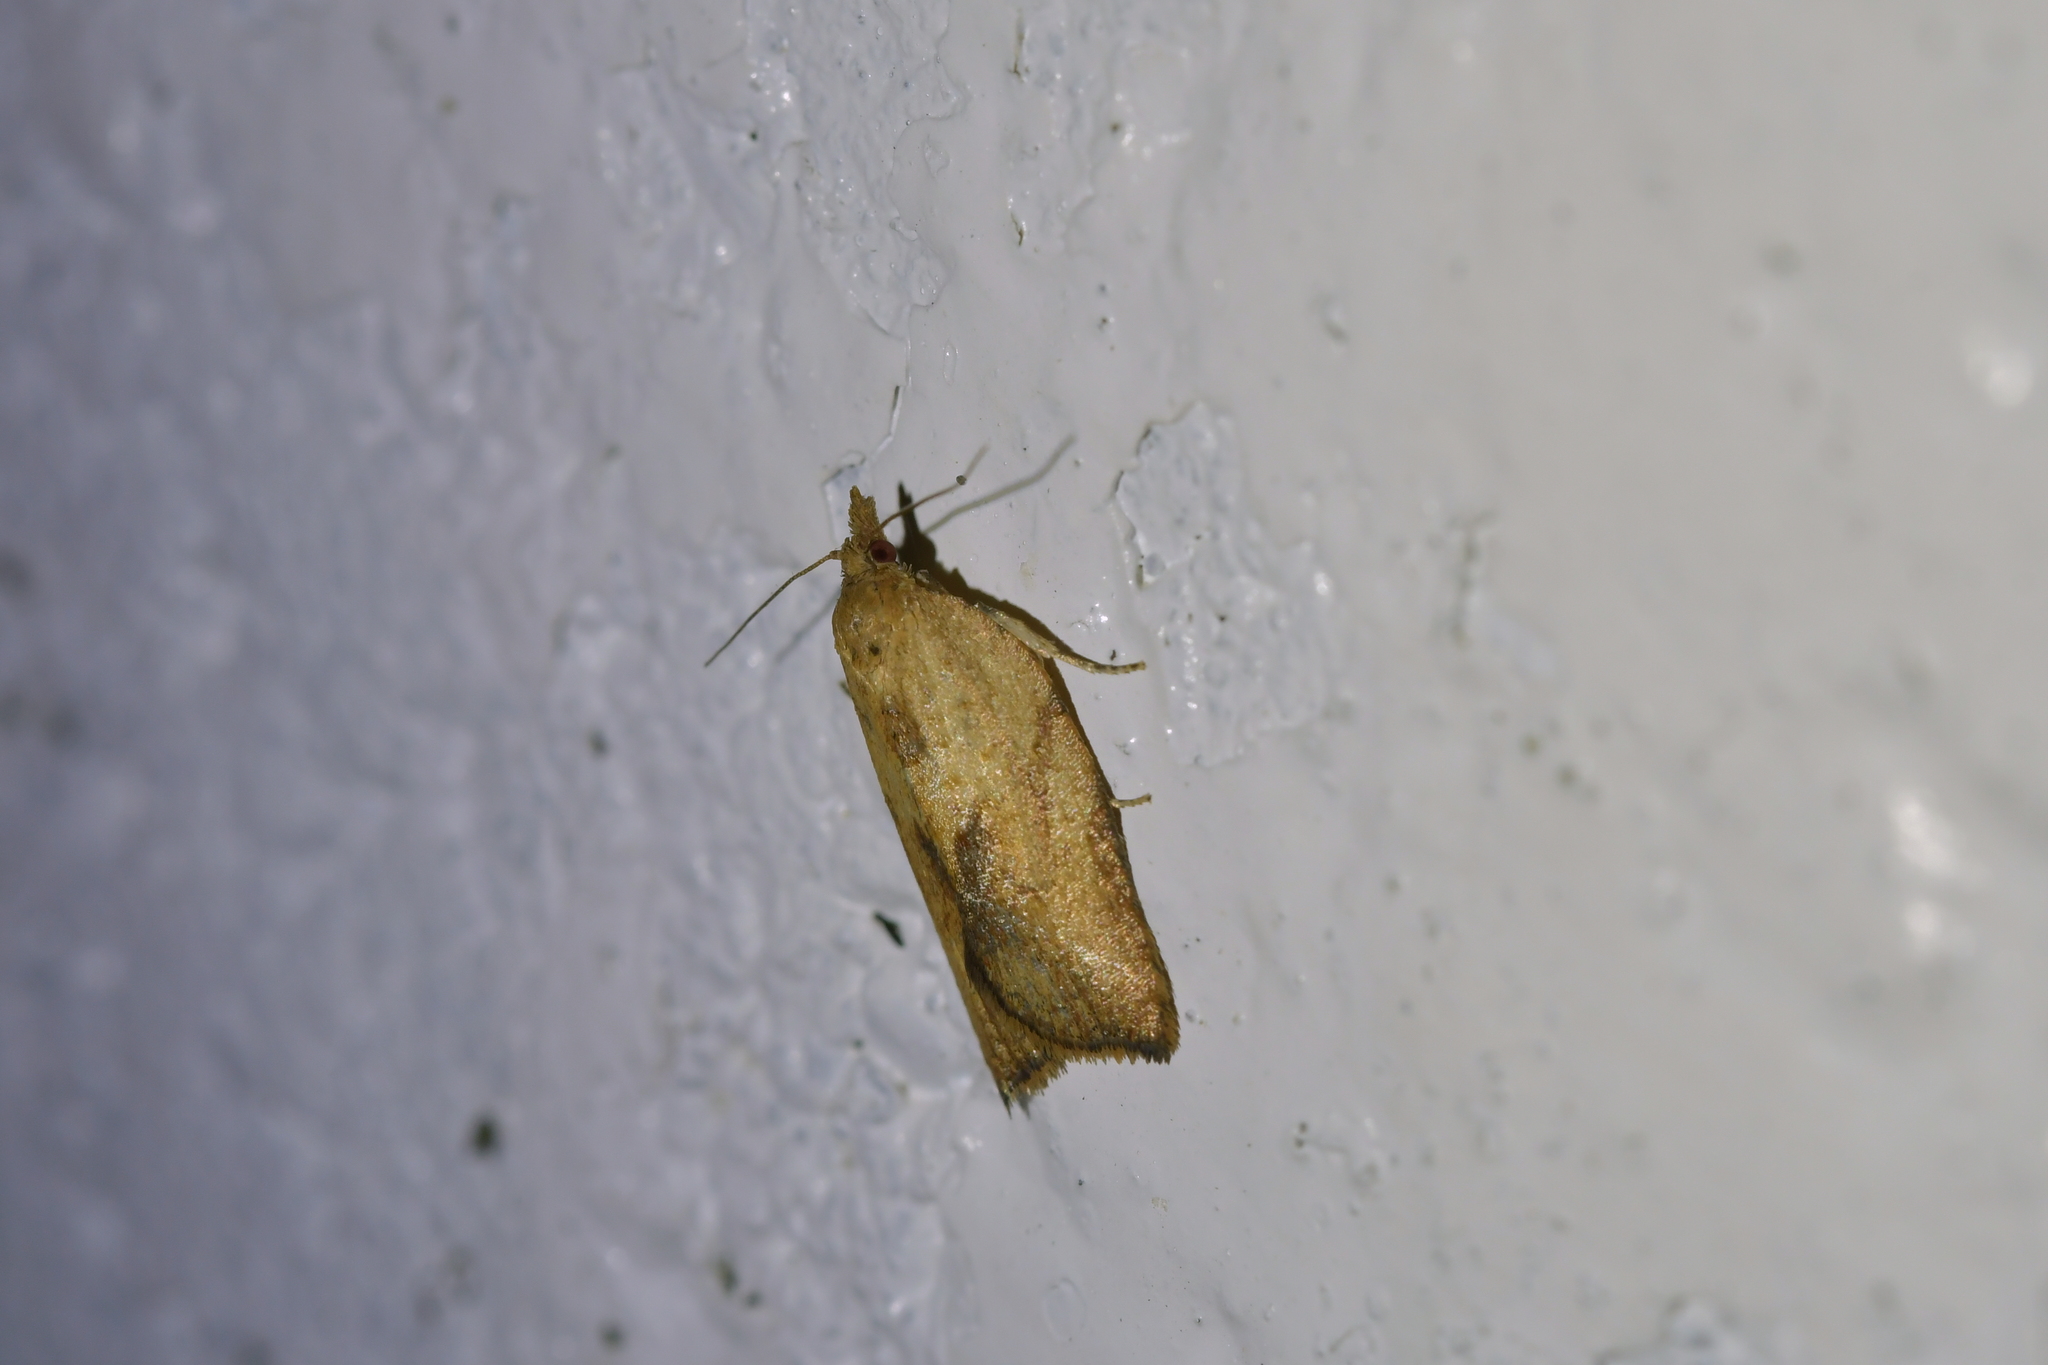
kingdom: Animalia
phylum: Arthropoda
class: Insecta
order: Lepidoptera
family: Tortricidae
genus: Epiphyas
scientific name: Epiphyas postvittana
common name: Light brown apple moth
